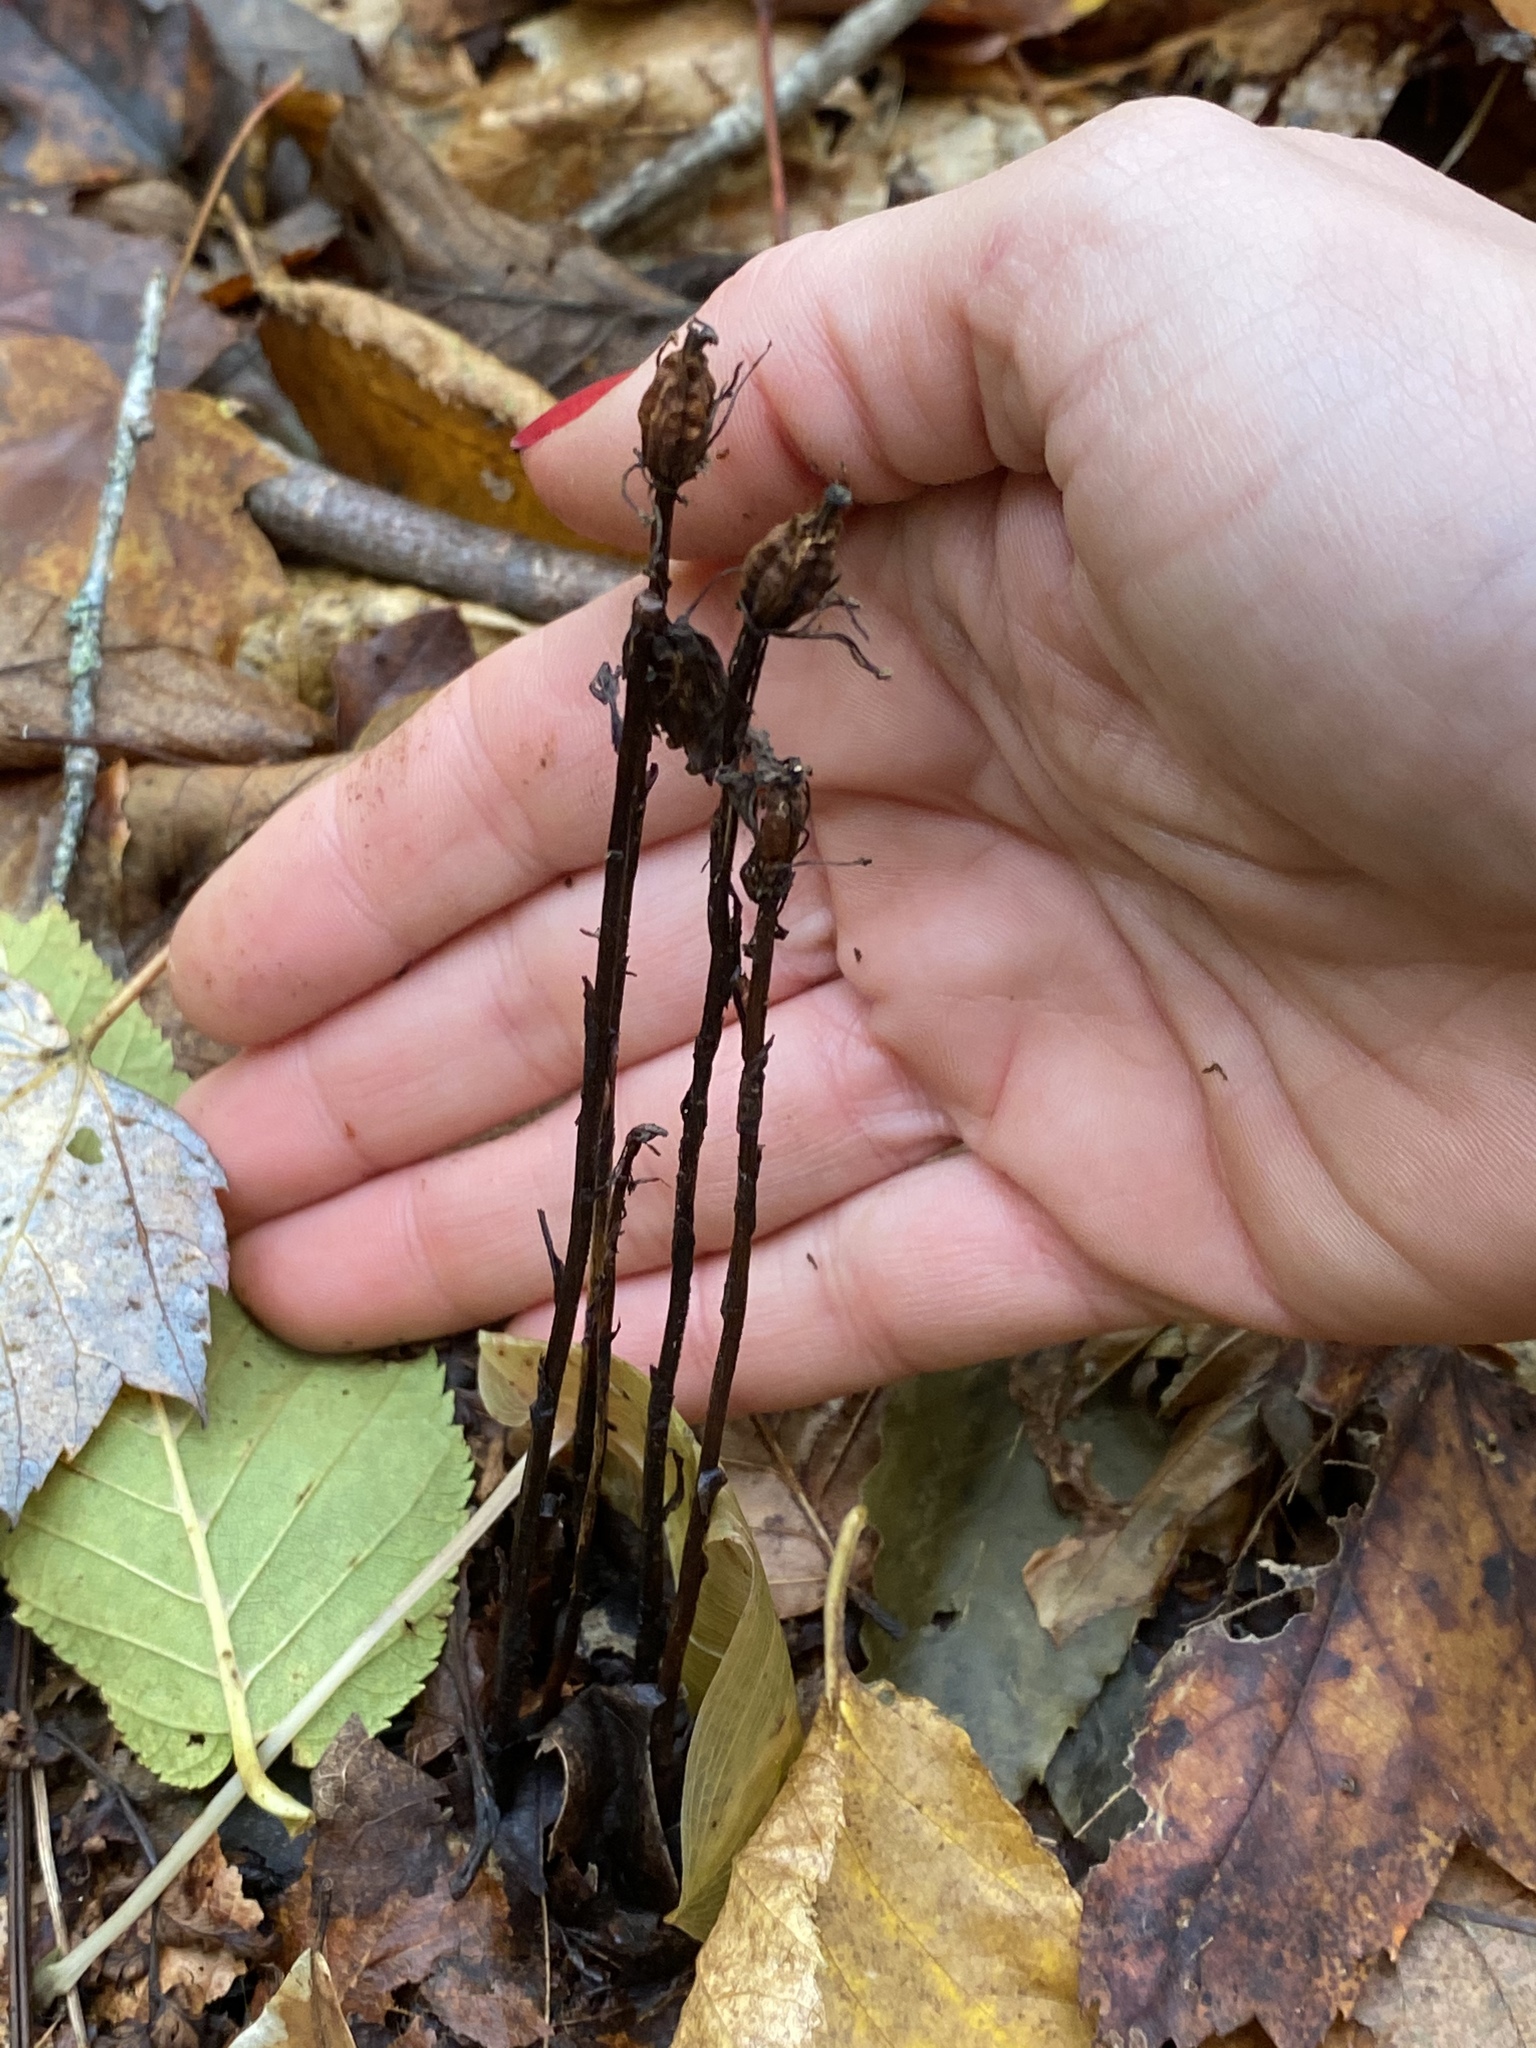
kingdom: Plantae
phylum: Tracheophyta
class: Magnoliopsida
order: Ericales
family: Ericaceae
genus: Monotropa
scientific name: Monotropa uniflora
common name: Convulsion root
